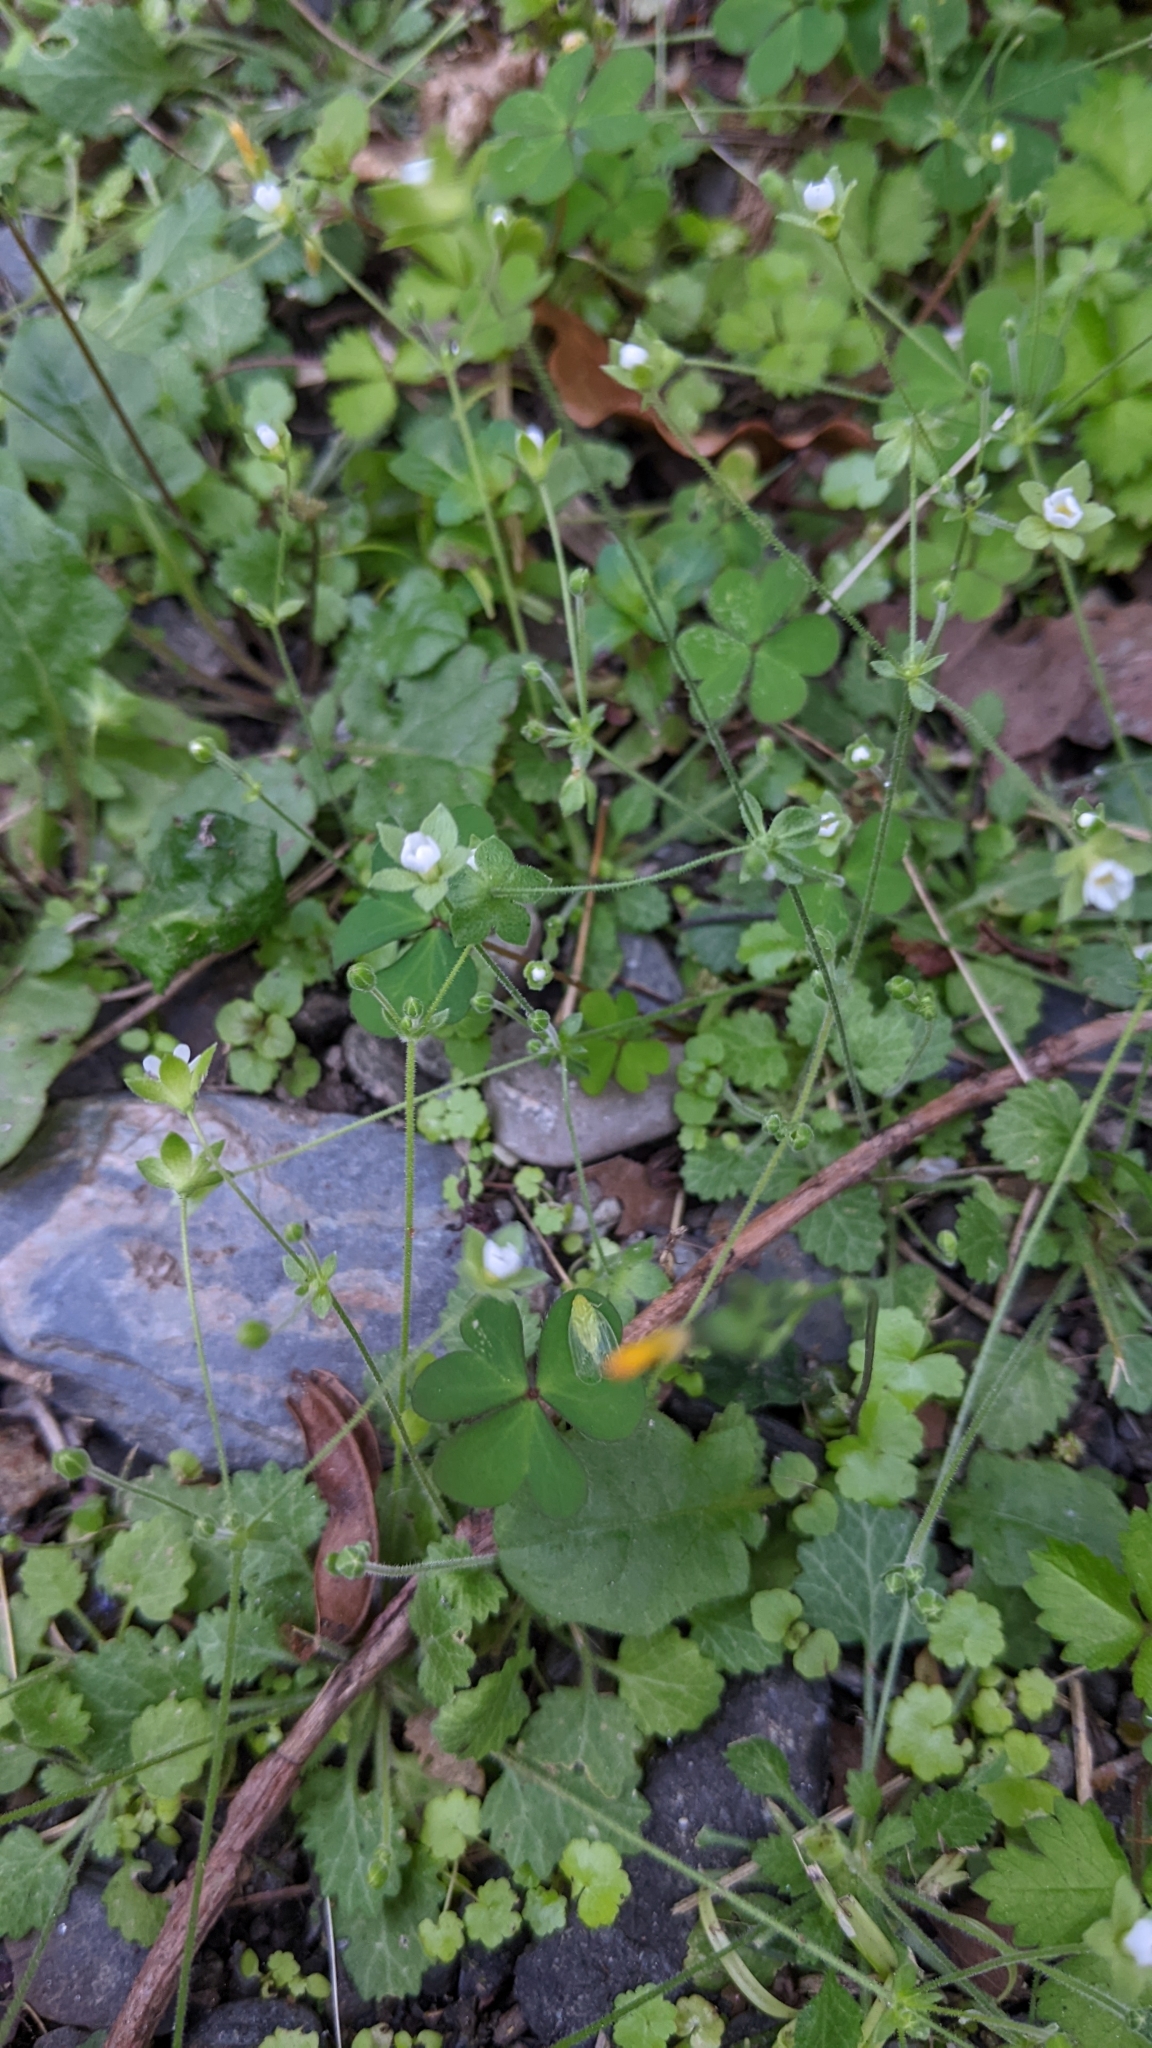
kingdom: Plantae
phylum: Tracheophyta
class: Magnoliopsida
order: Ericales
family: Primulaceae
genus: Androsace
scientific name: Androsace umbellata
